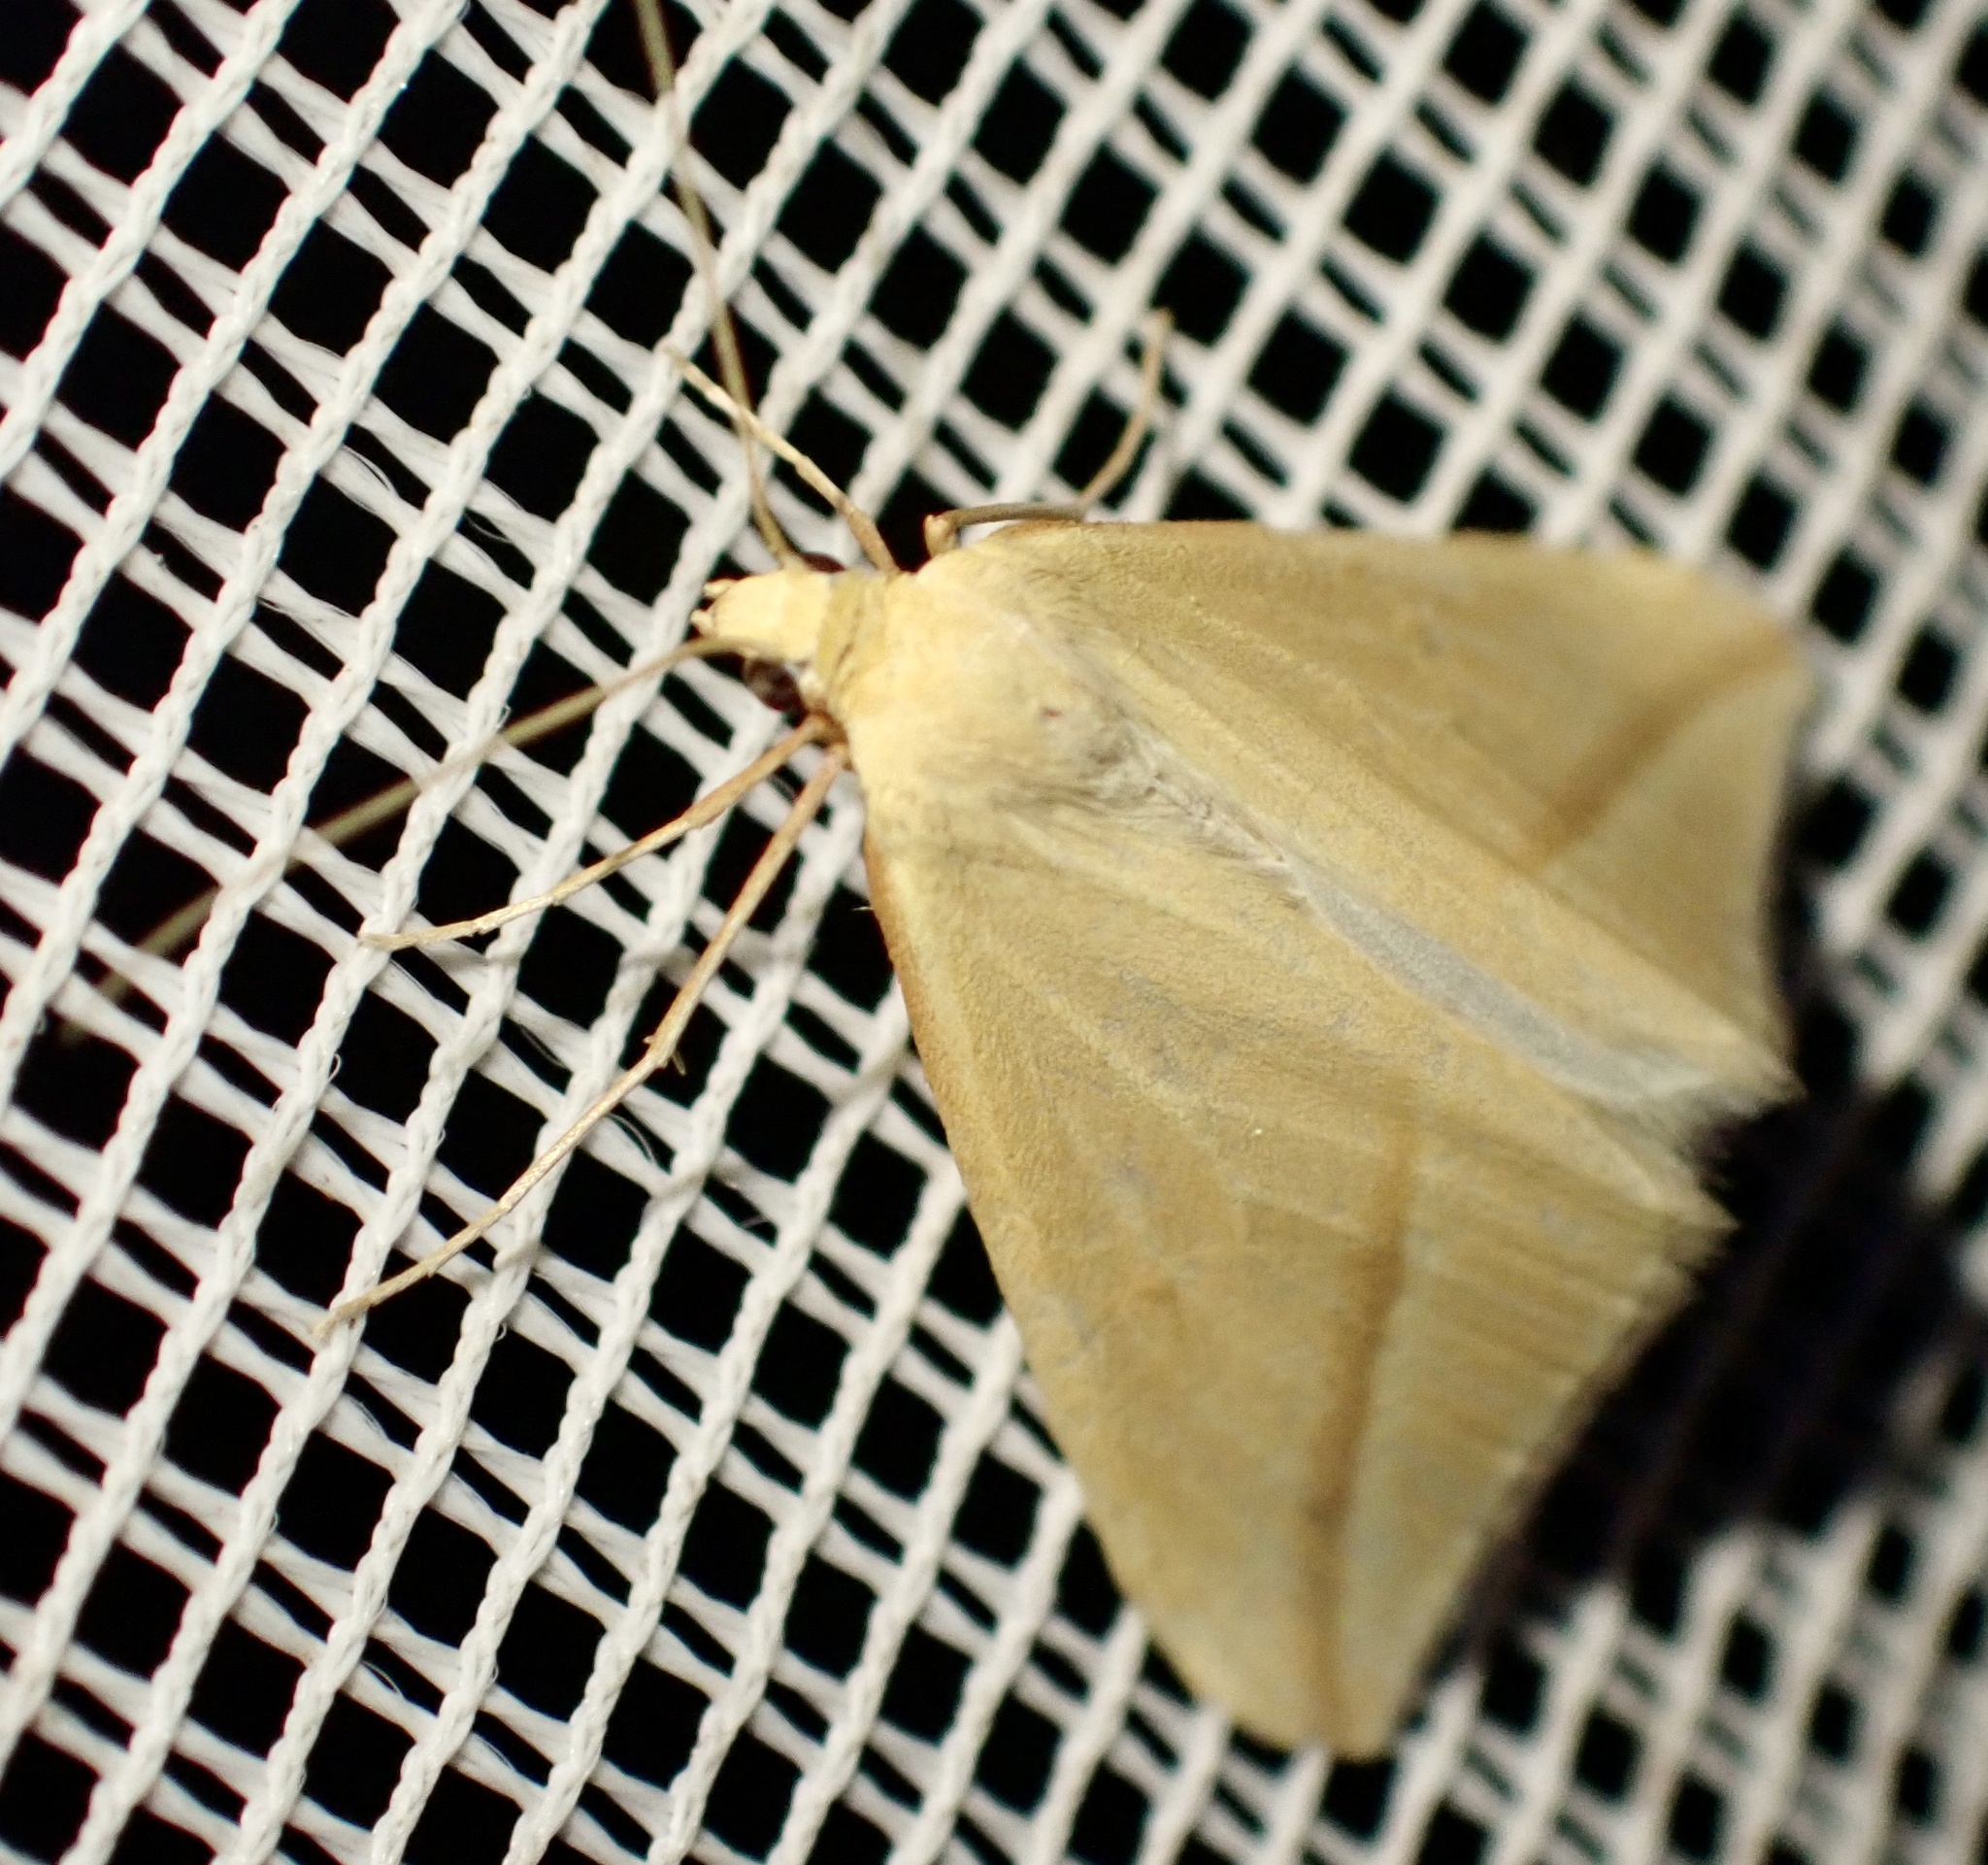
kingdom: Animalia
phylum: Arthropoda
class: Insecta
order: Lepidoptera
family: Geometridae
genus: Rhodometra
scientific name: Rhodometra sacraria
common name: Vestal
